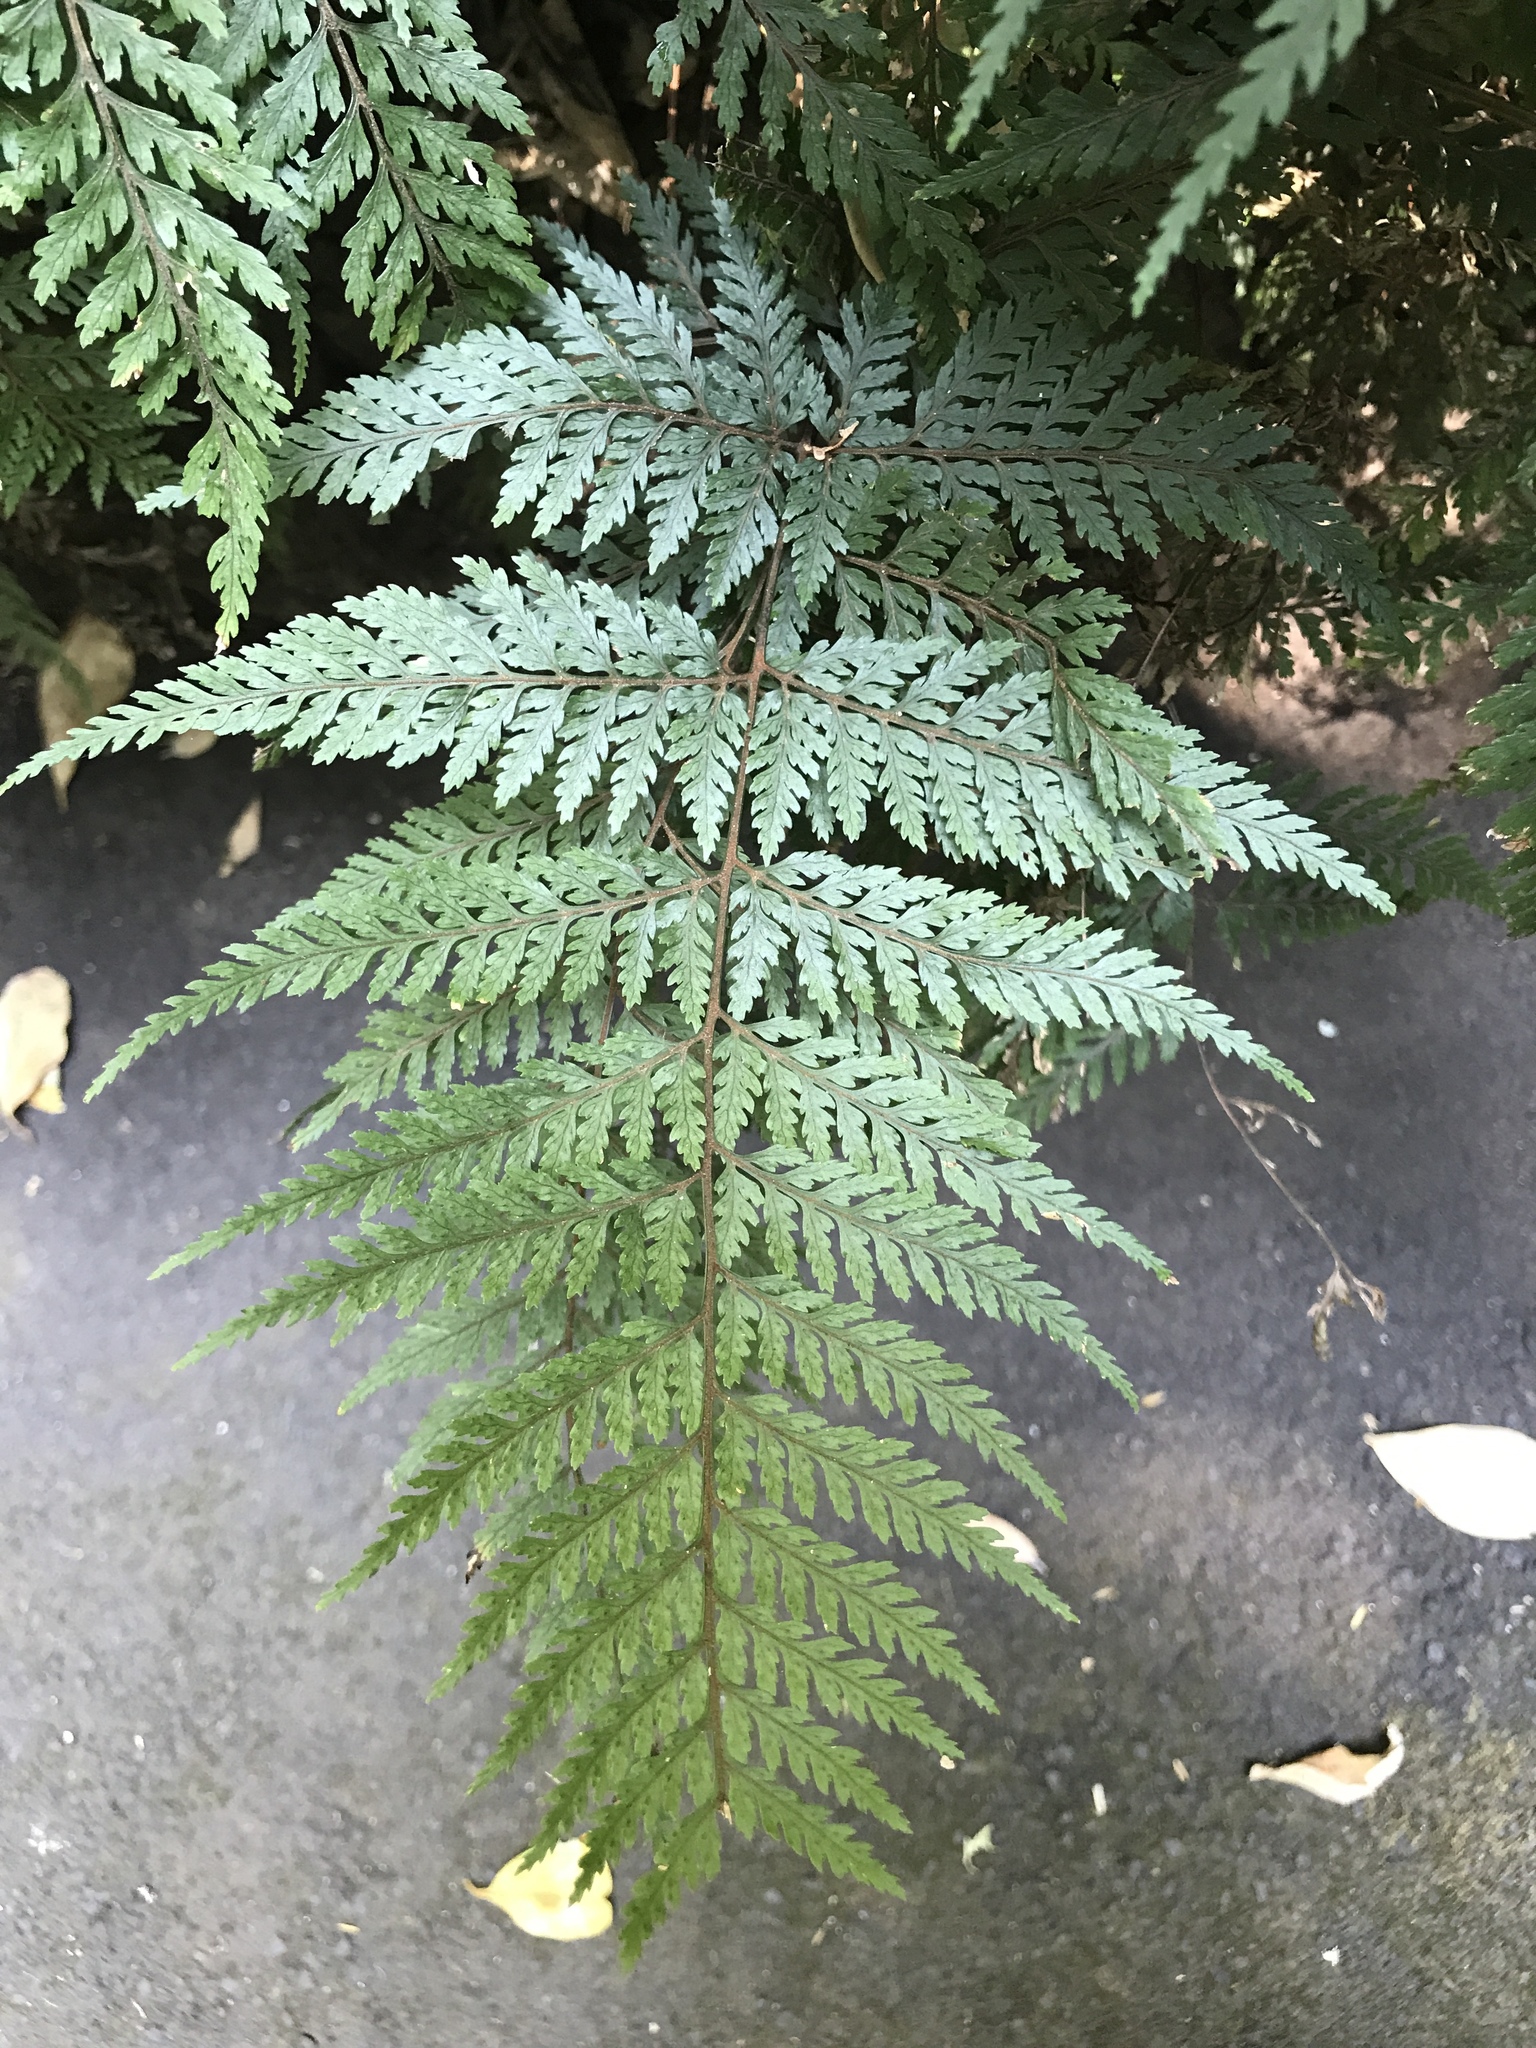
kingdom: Plantae
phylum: Tracheophyta
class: Polypodiopsida
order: Polypodiales
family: Dryopteridaceae
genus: Parapolystichum
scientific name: Parapolystichum glabellum
